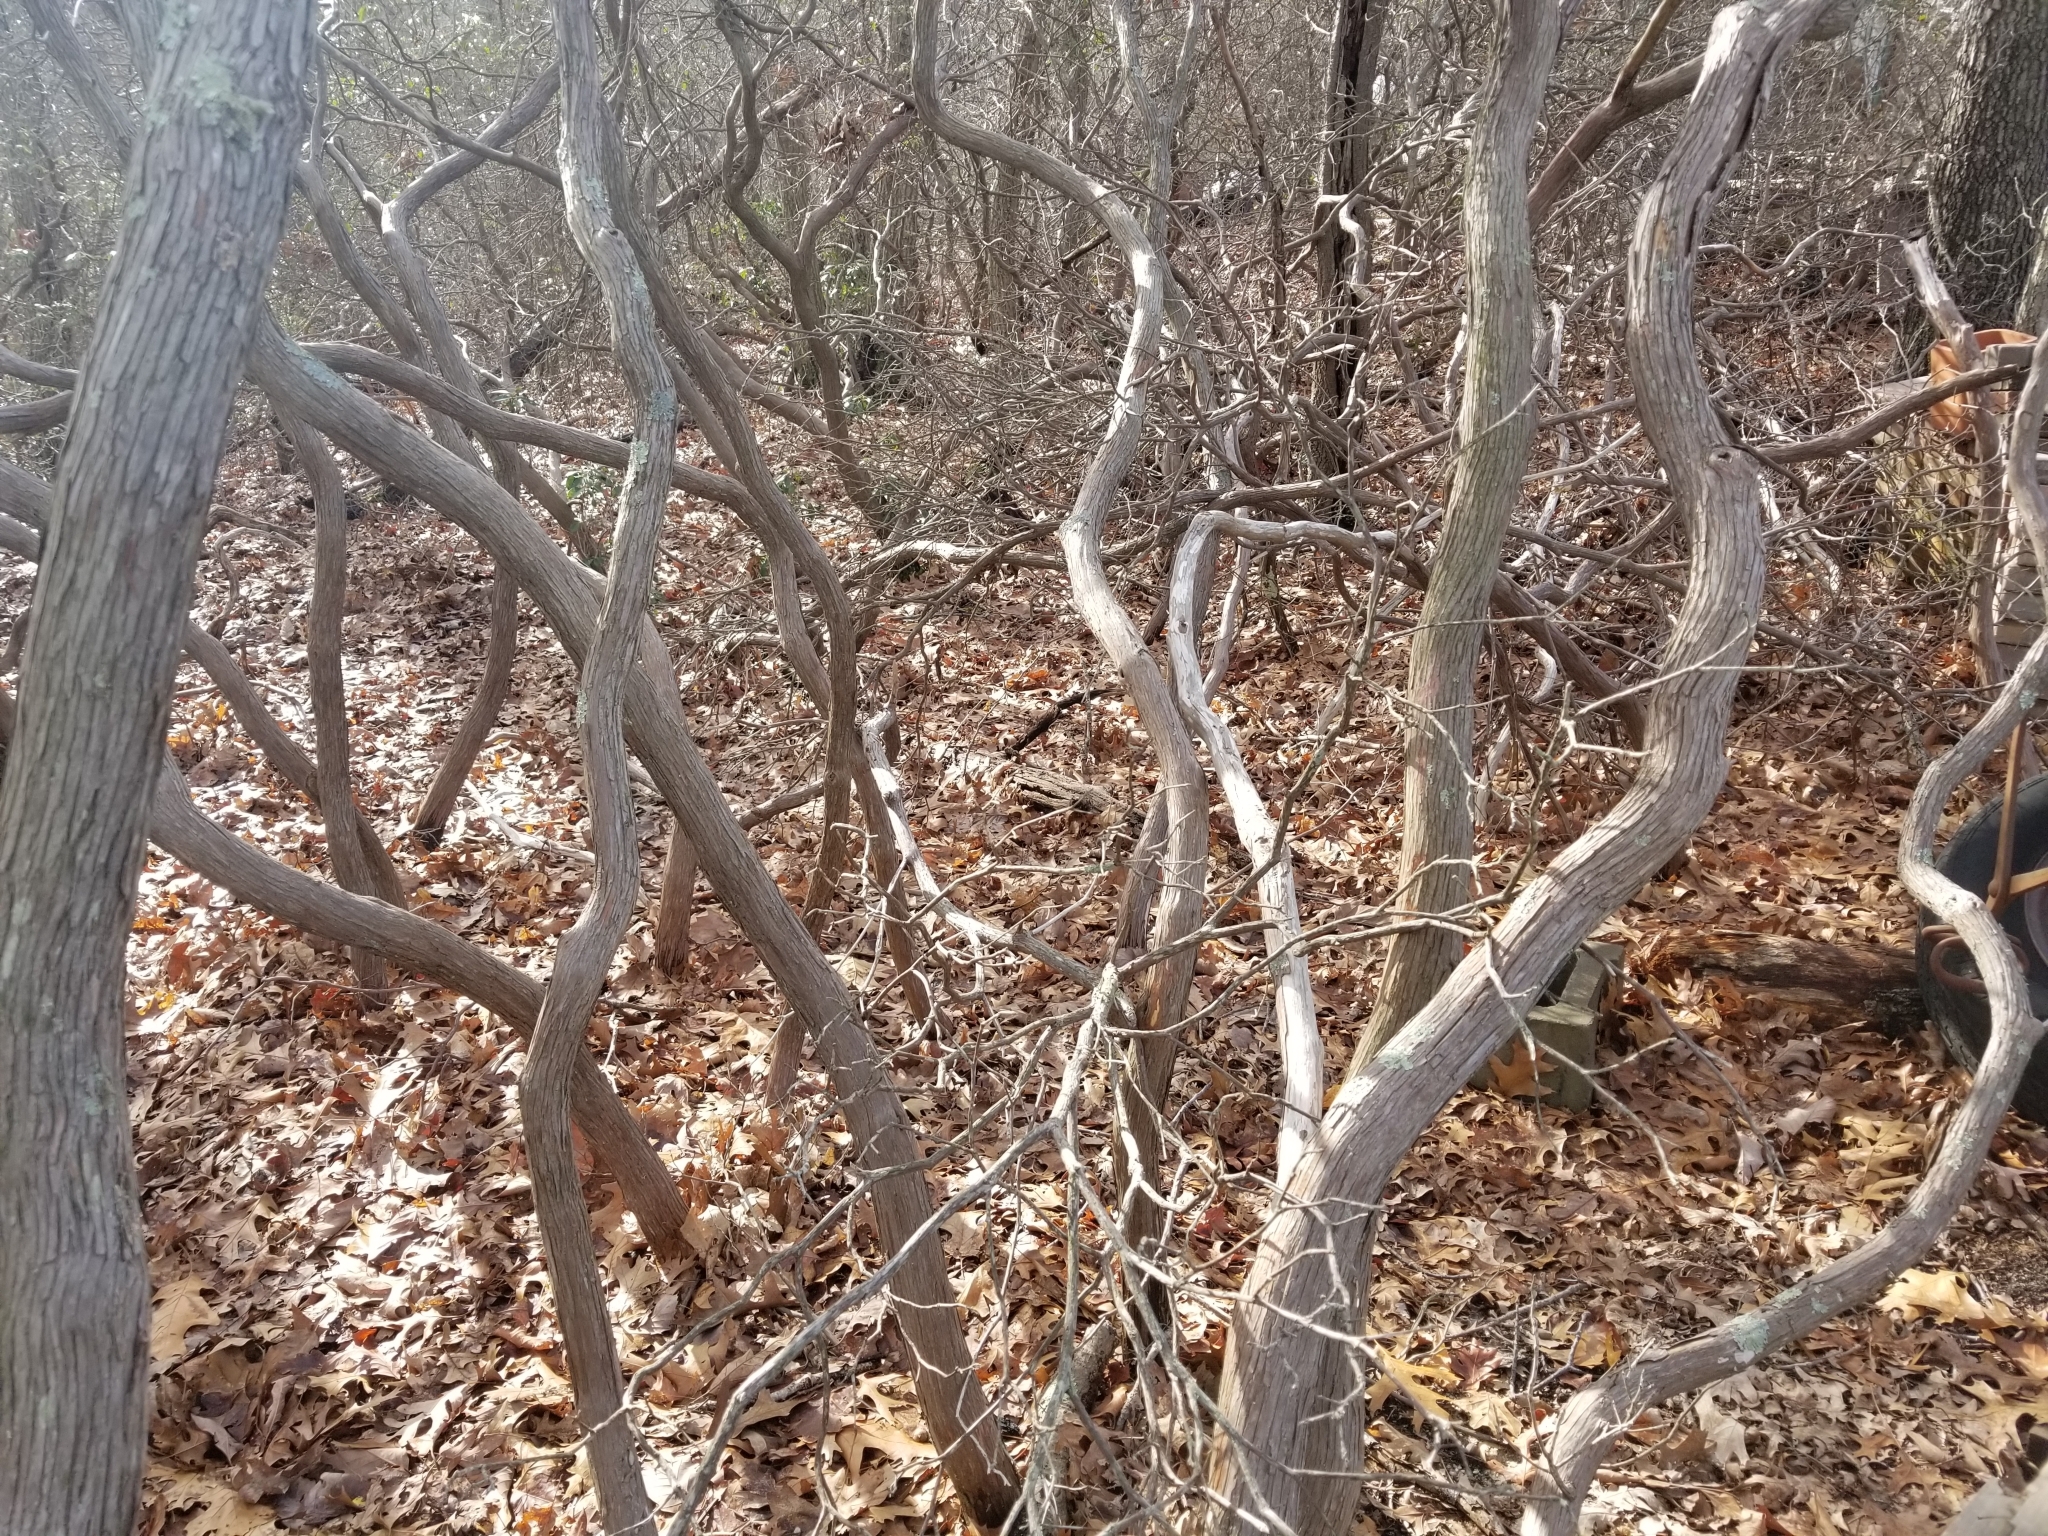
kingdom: Plantae
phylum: Tracheophyta
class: Magnoliopsida
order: Ericales
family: Ericaceae
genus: Kalmia
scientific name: Kalmia latifolia
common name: Mountain-laurel
